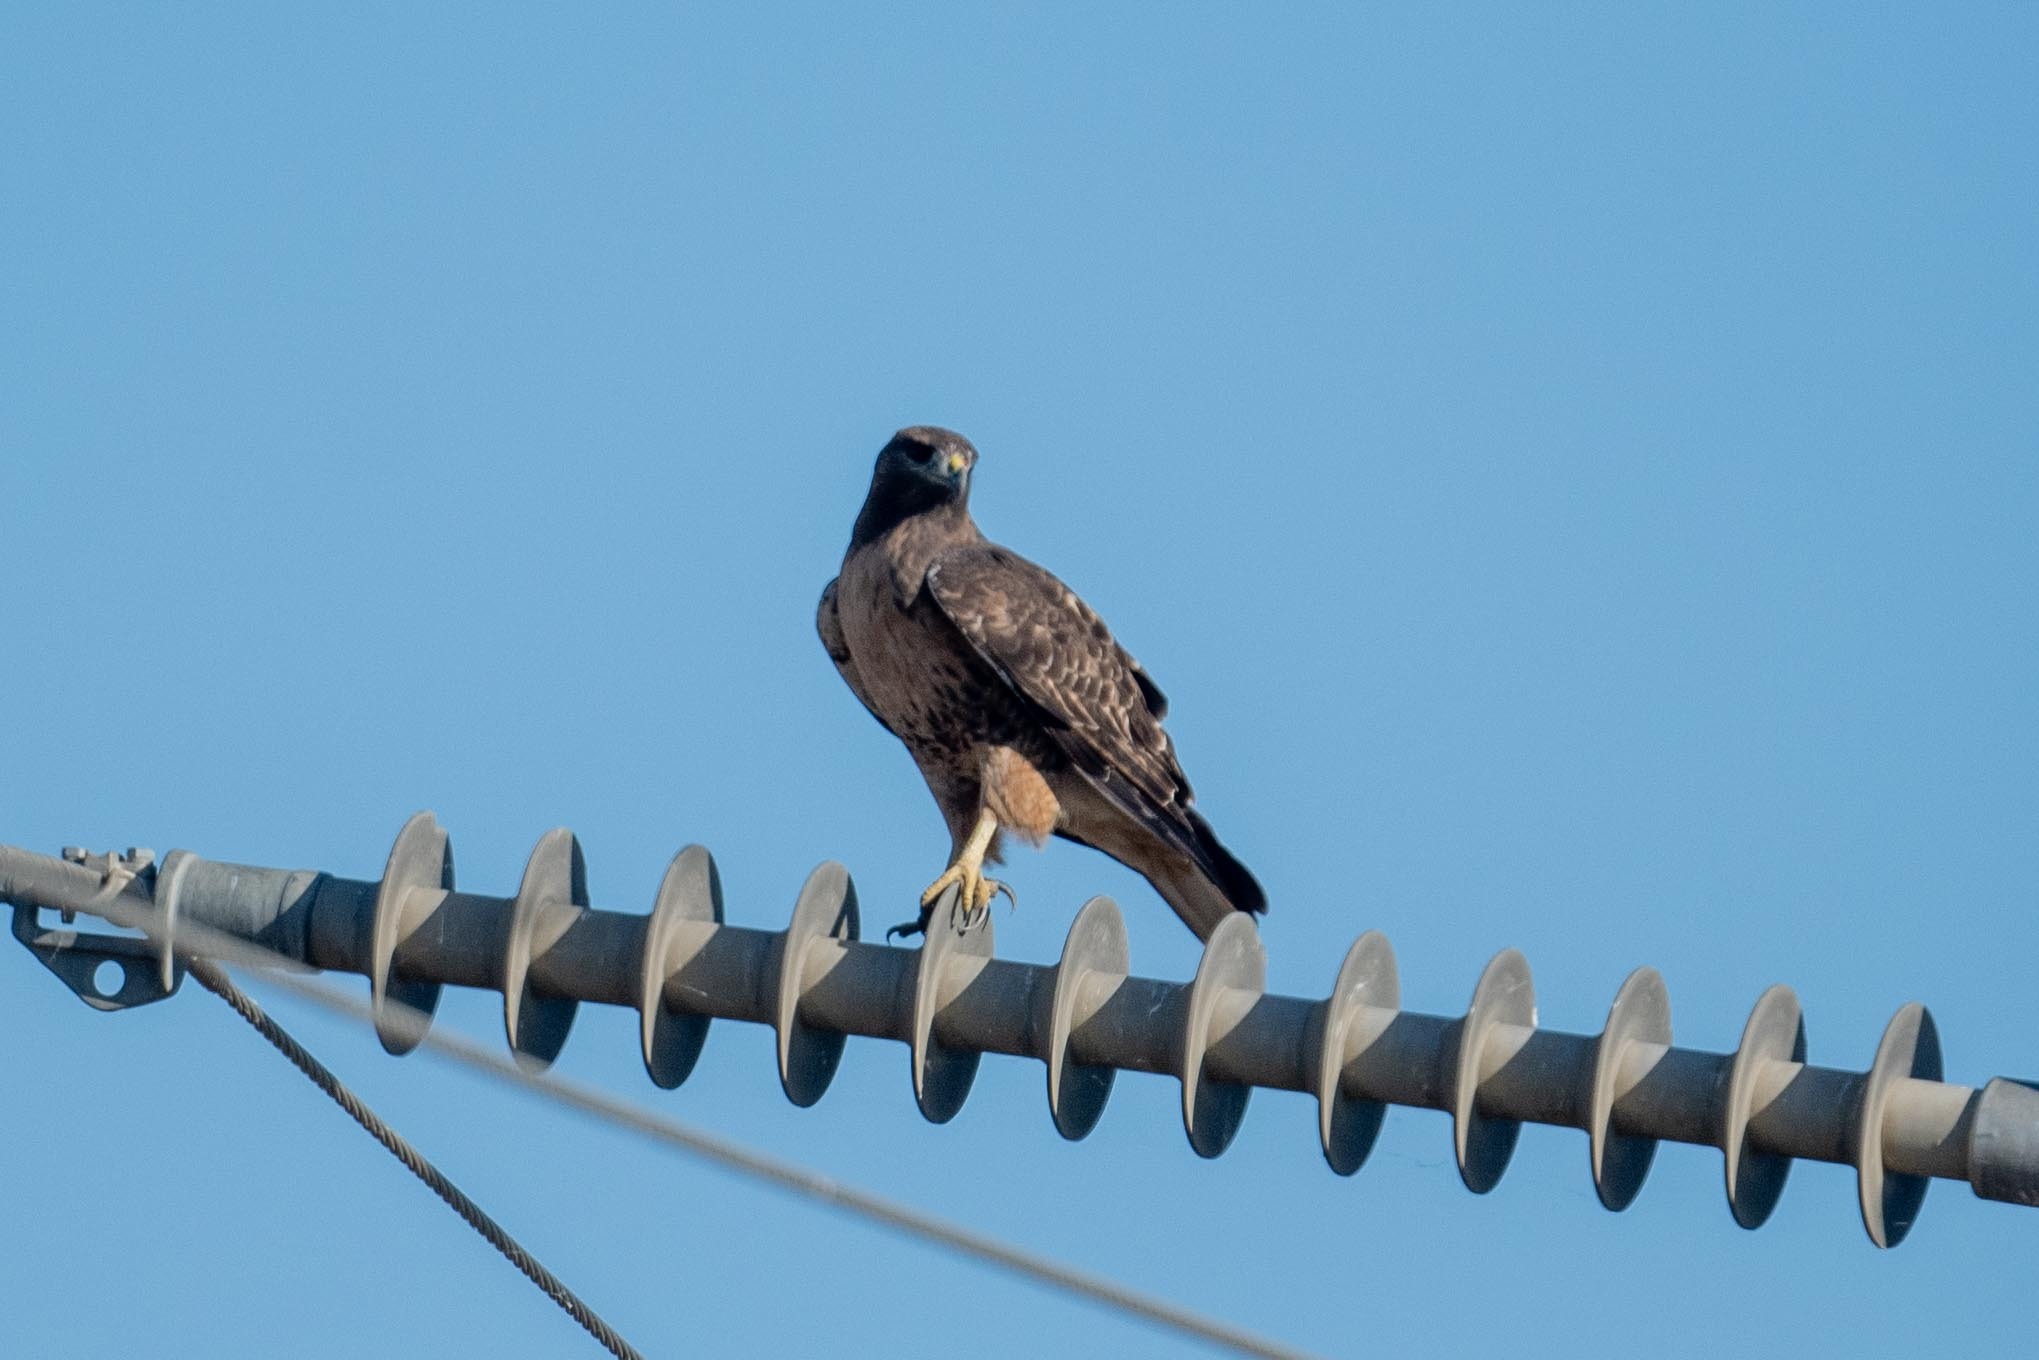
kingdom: Animalia
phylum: Chordata
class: Aves
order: Accipitriformes
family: Accipitridae
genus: Buteo
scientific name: Buteo jamaicensis
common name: Red-tailed hawk
